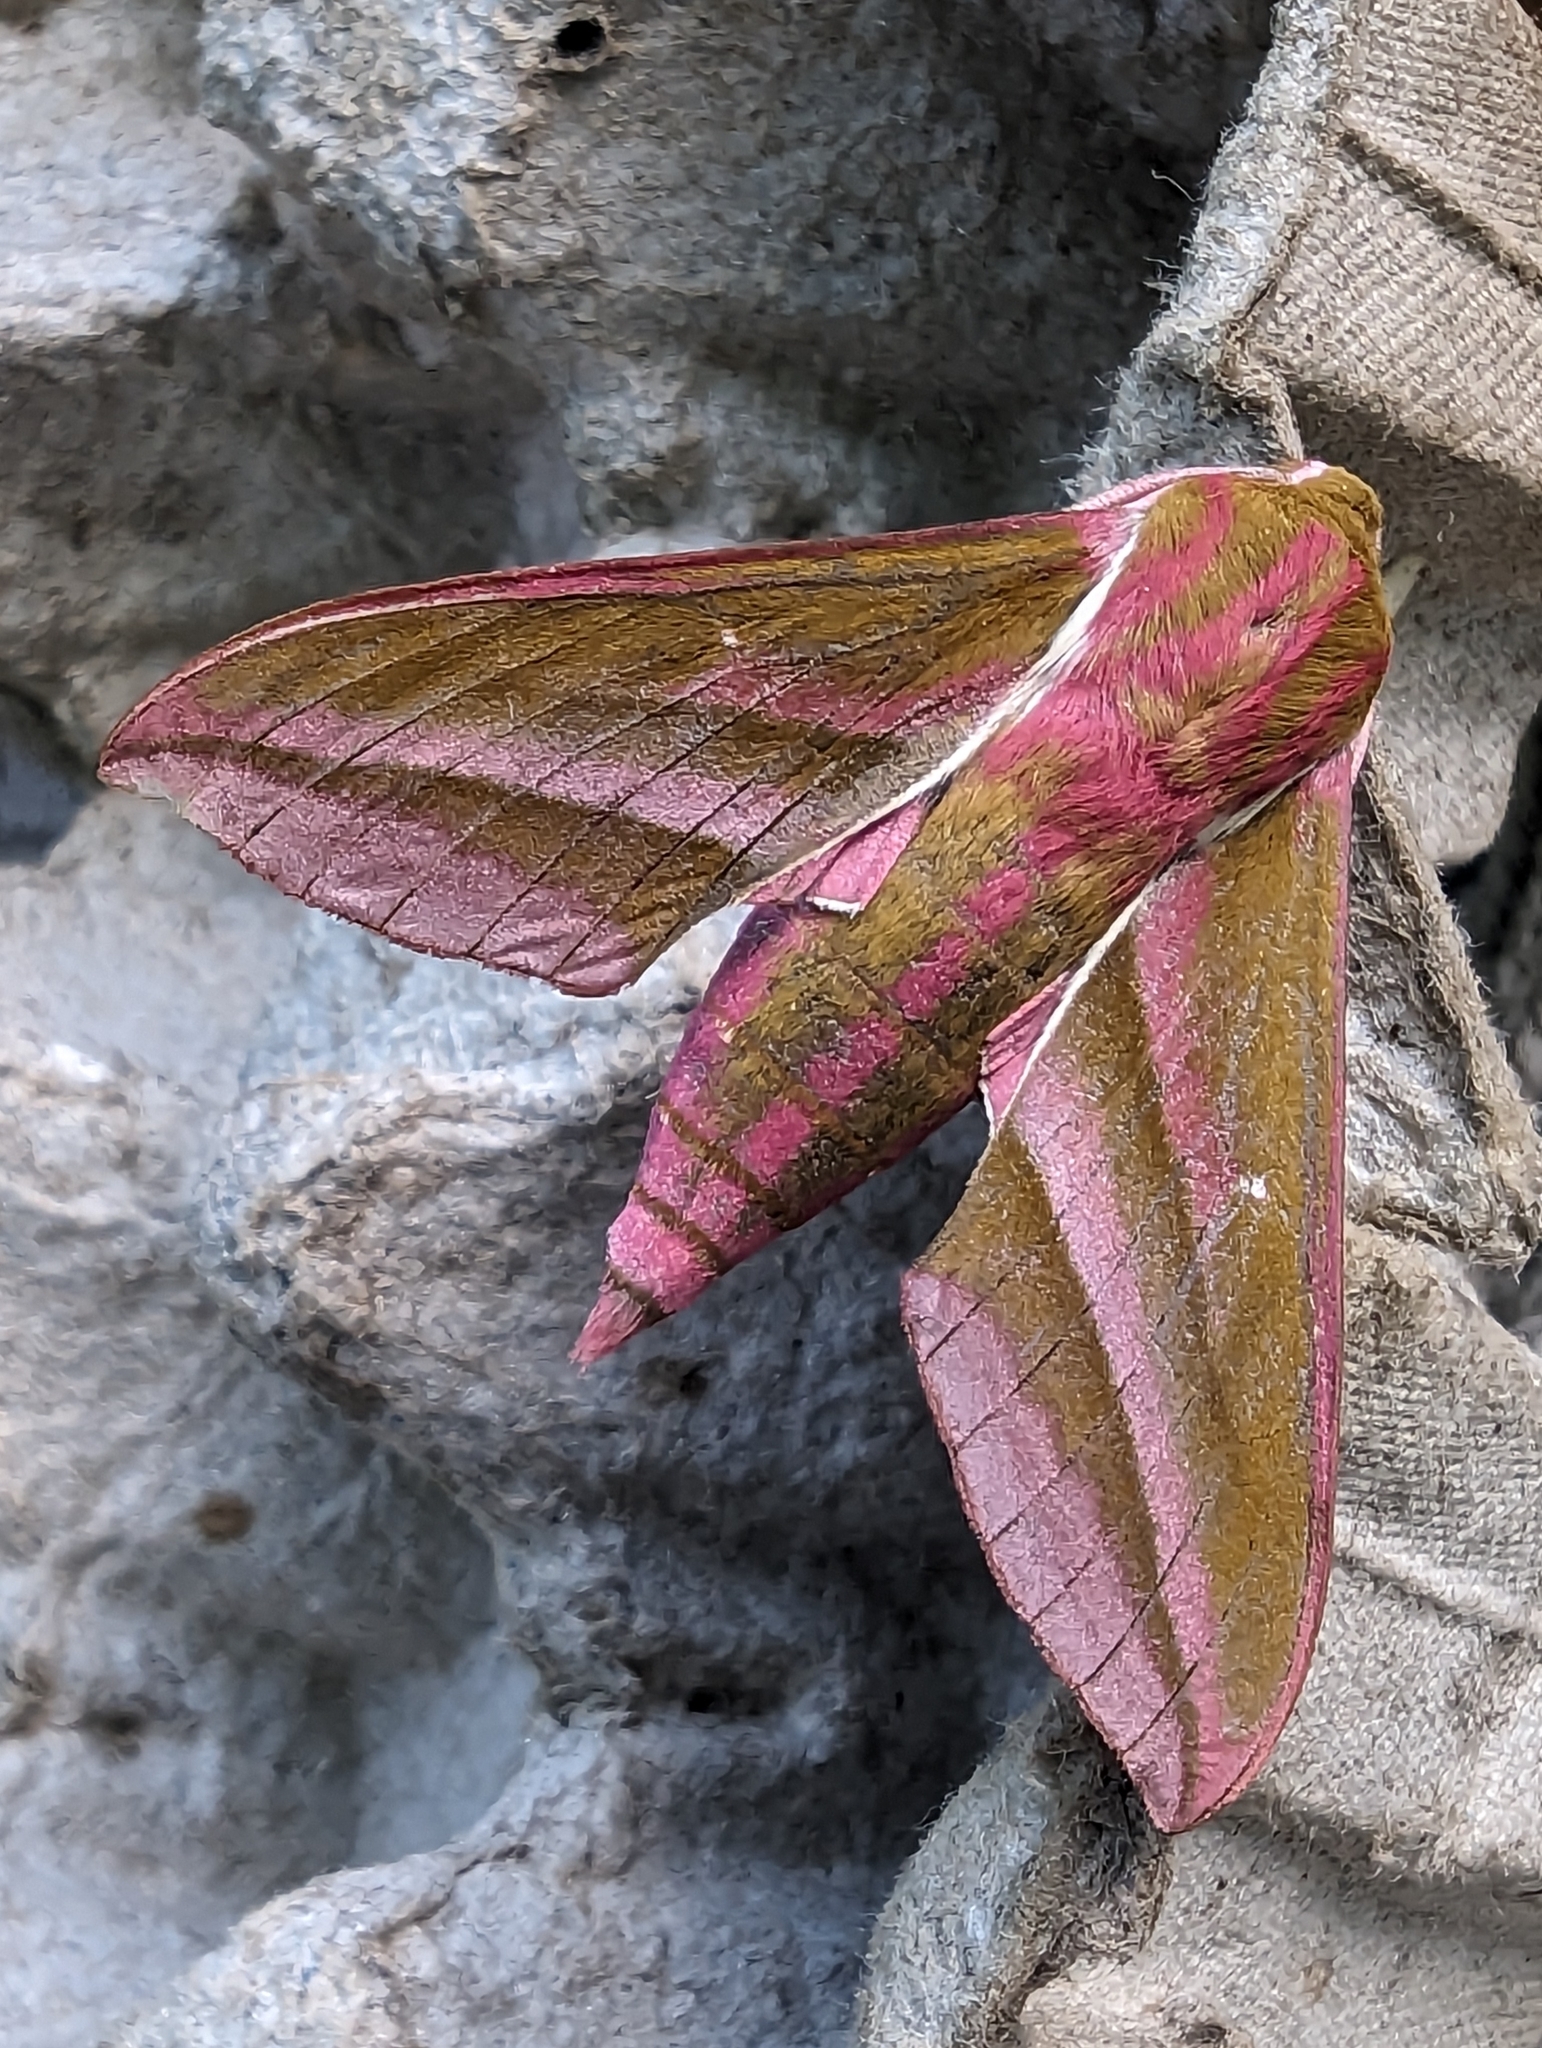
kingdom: Animalia
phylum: Arthropoda
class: Insecta
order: Lepidoptera
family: Sphingidae
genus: Deilephila
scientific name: Deilephila elpenor
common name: Elephant hawk-moth
